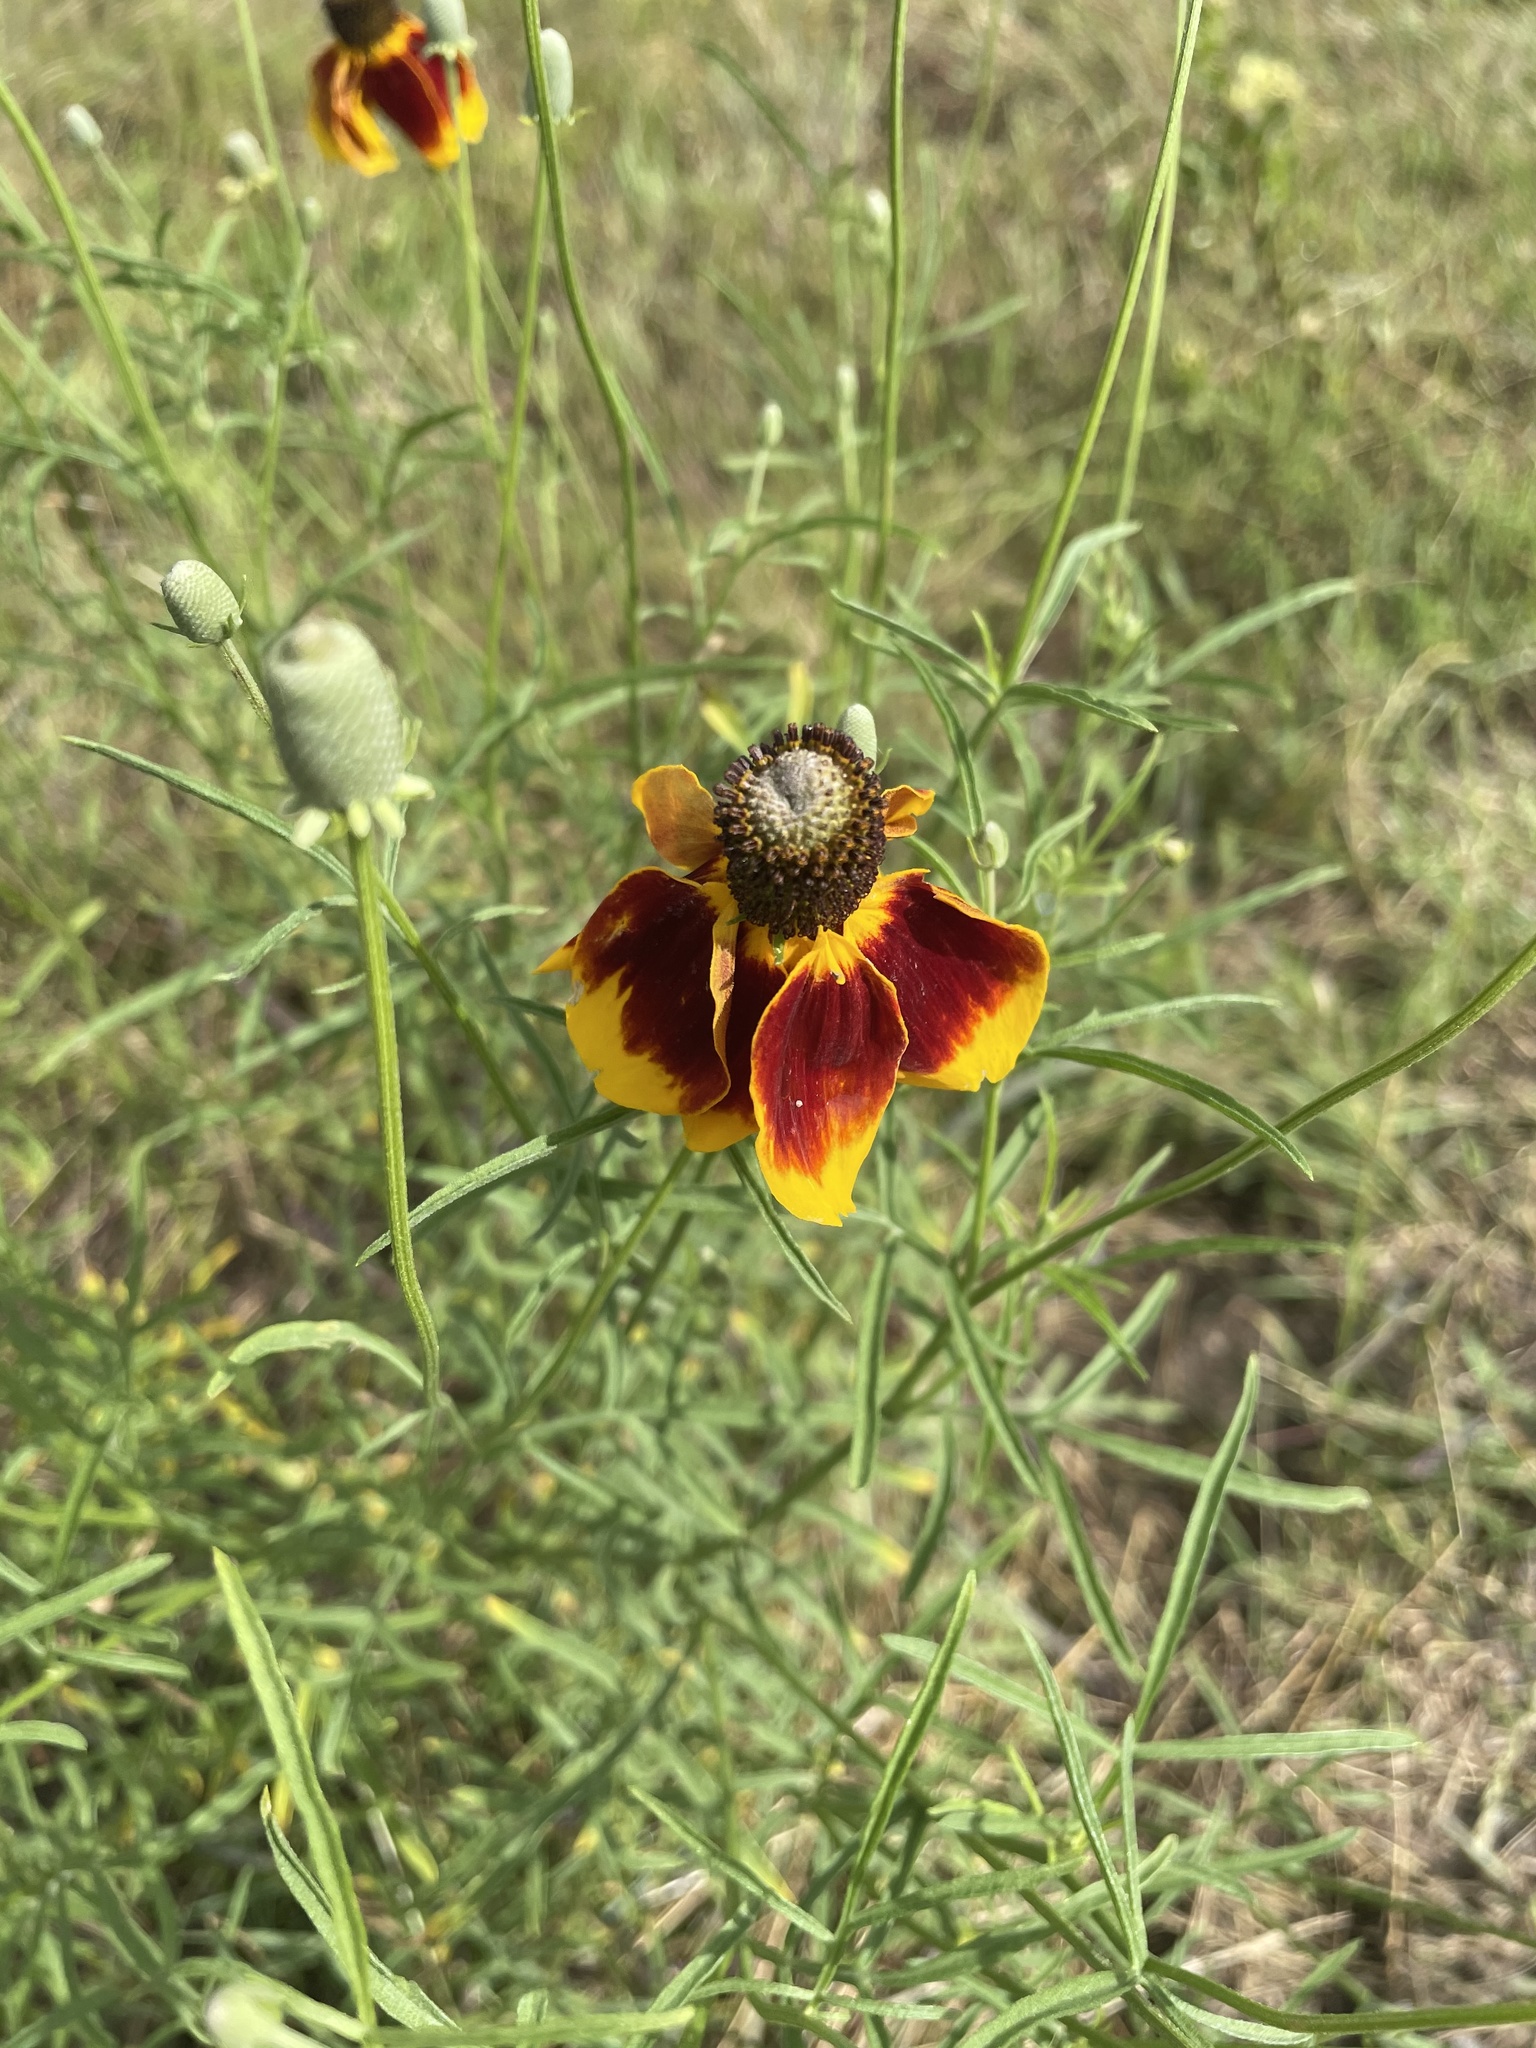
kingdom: Plantae
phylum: Tracheophyta
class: Magnoliopsida
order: Asterales
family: Asteraceae
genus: Ratibida
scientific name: Ratibida columnifera
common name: Prairie coneflower
